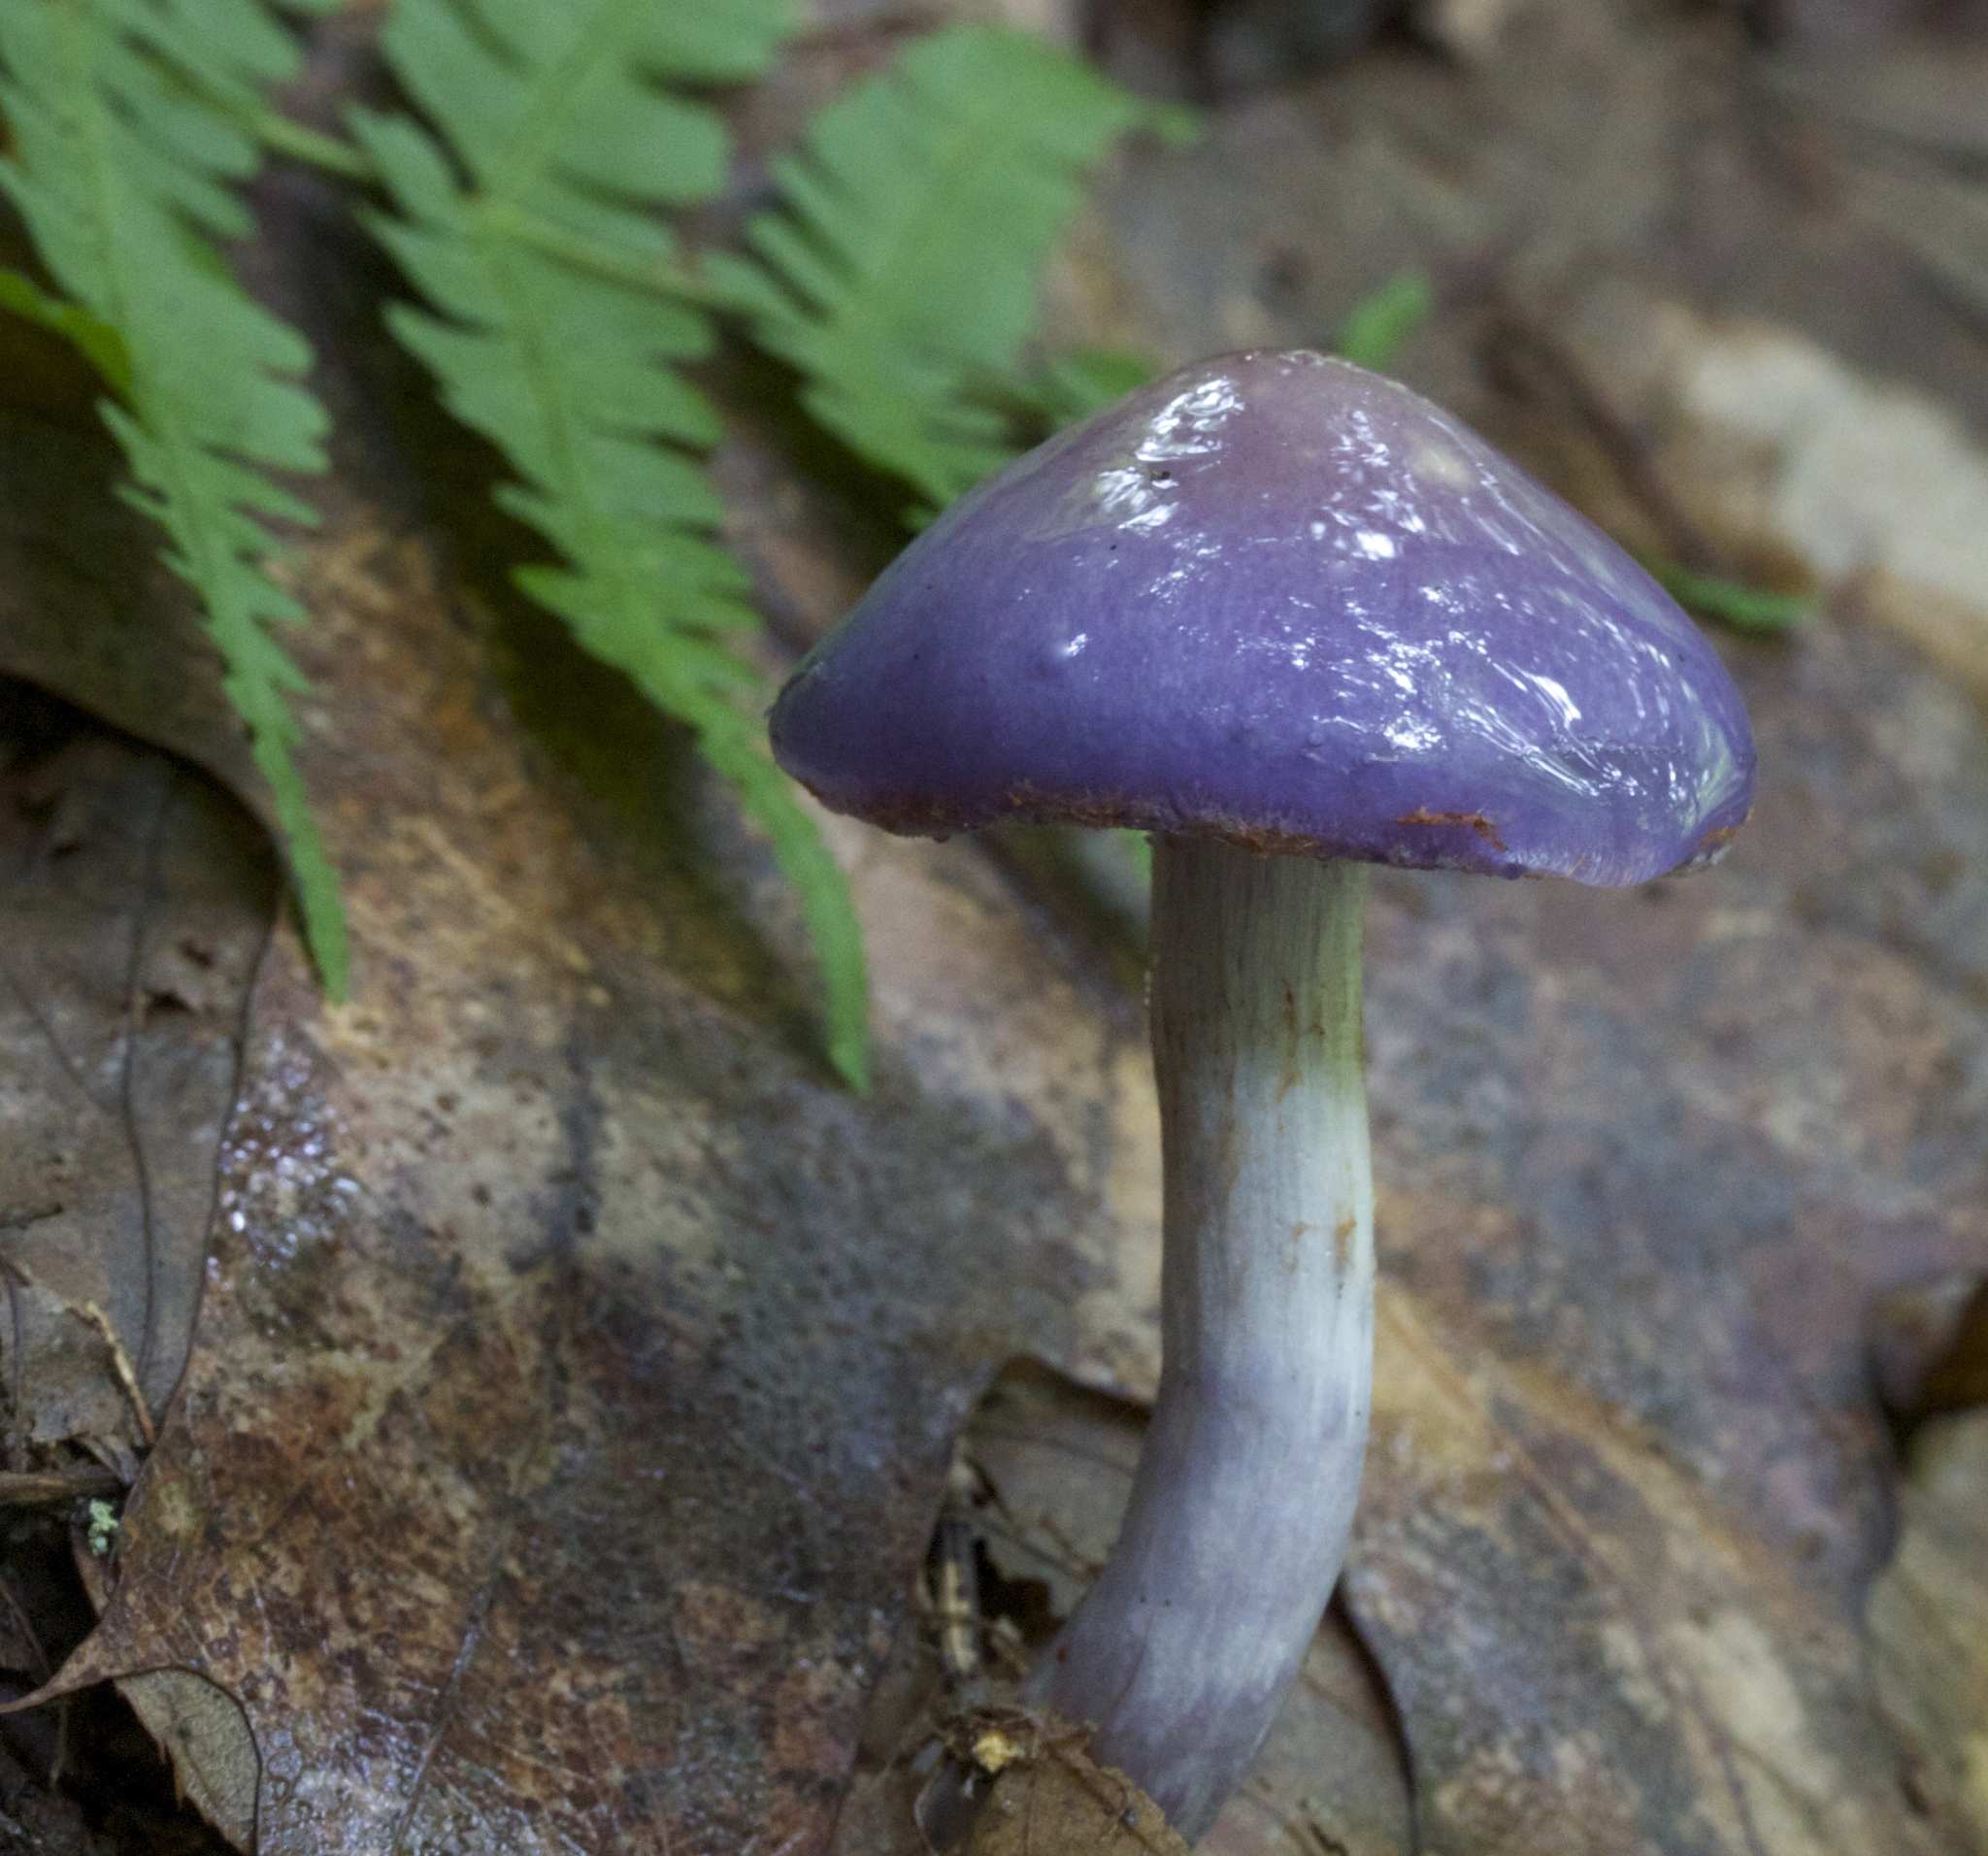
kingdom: Fungi
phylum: Basidiomycota
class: Agaricomycetes
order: Agaricales
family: Cortinariaceae
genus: Cortinarius
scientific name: Cortinarius iodes
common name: Viscid violet cort
